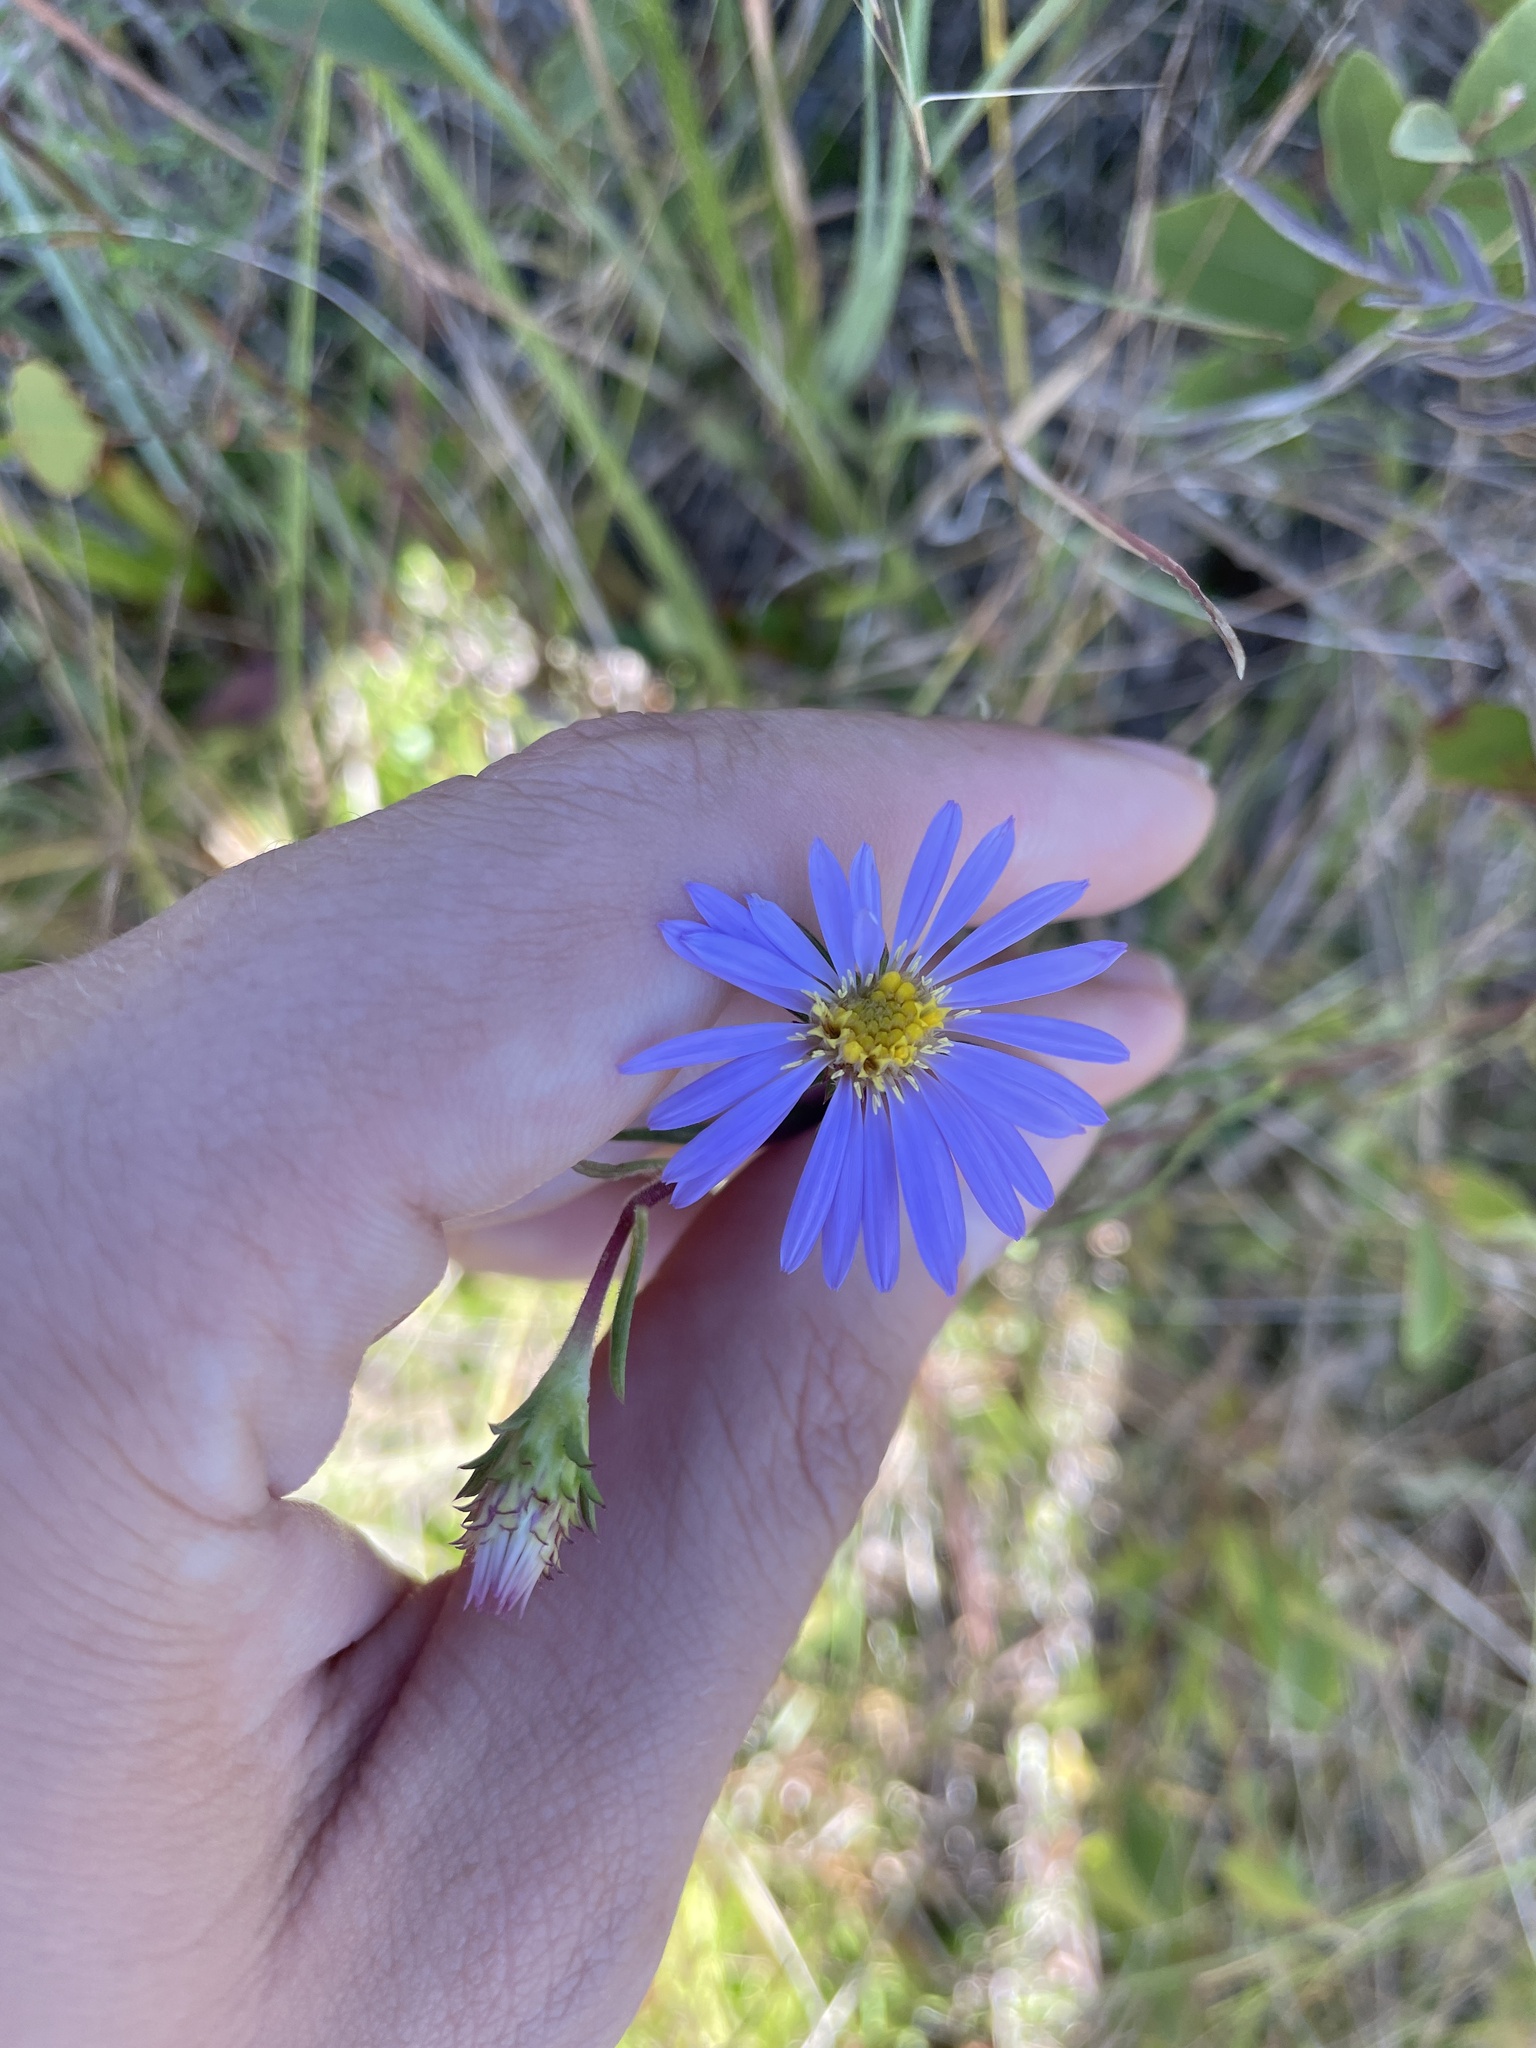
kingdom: Plantae
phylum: Tracheophyta
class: Magnoliopsida
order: Asterales
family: Asteraceae
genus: Eurybia
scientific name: Eurybia paludosa
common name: Southern swamp aster
